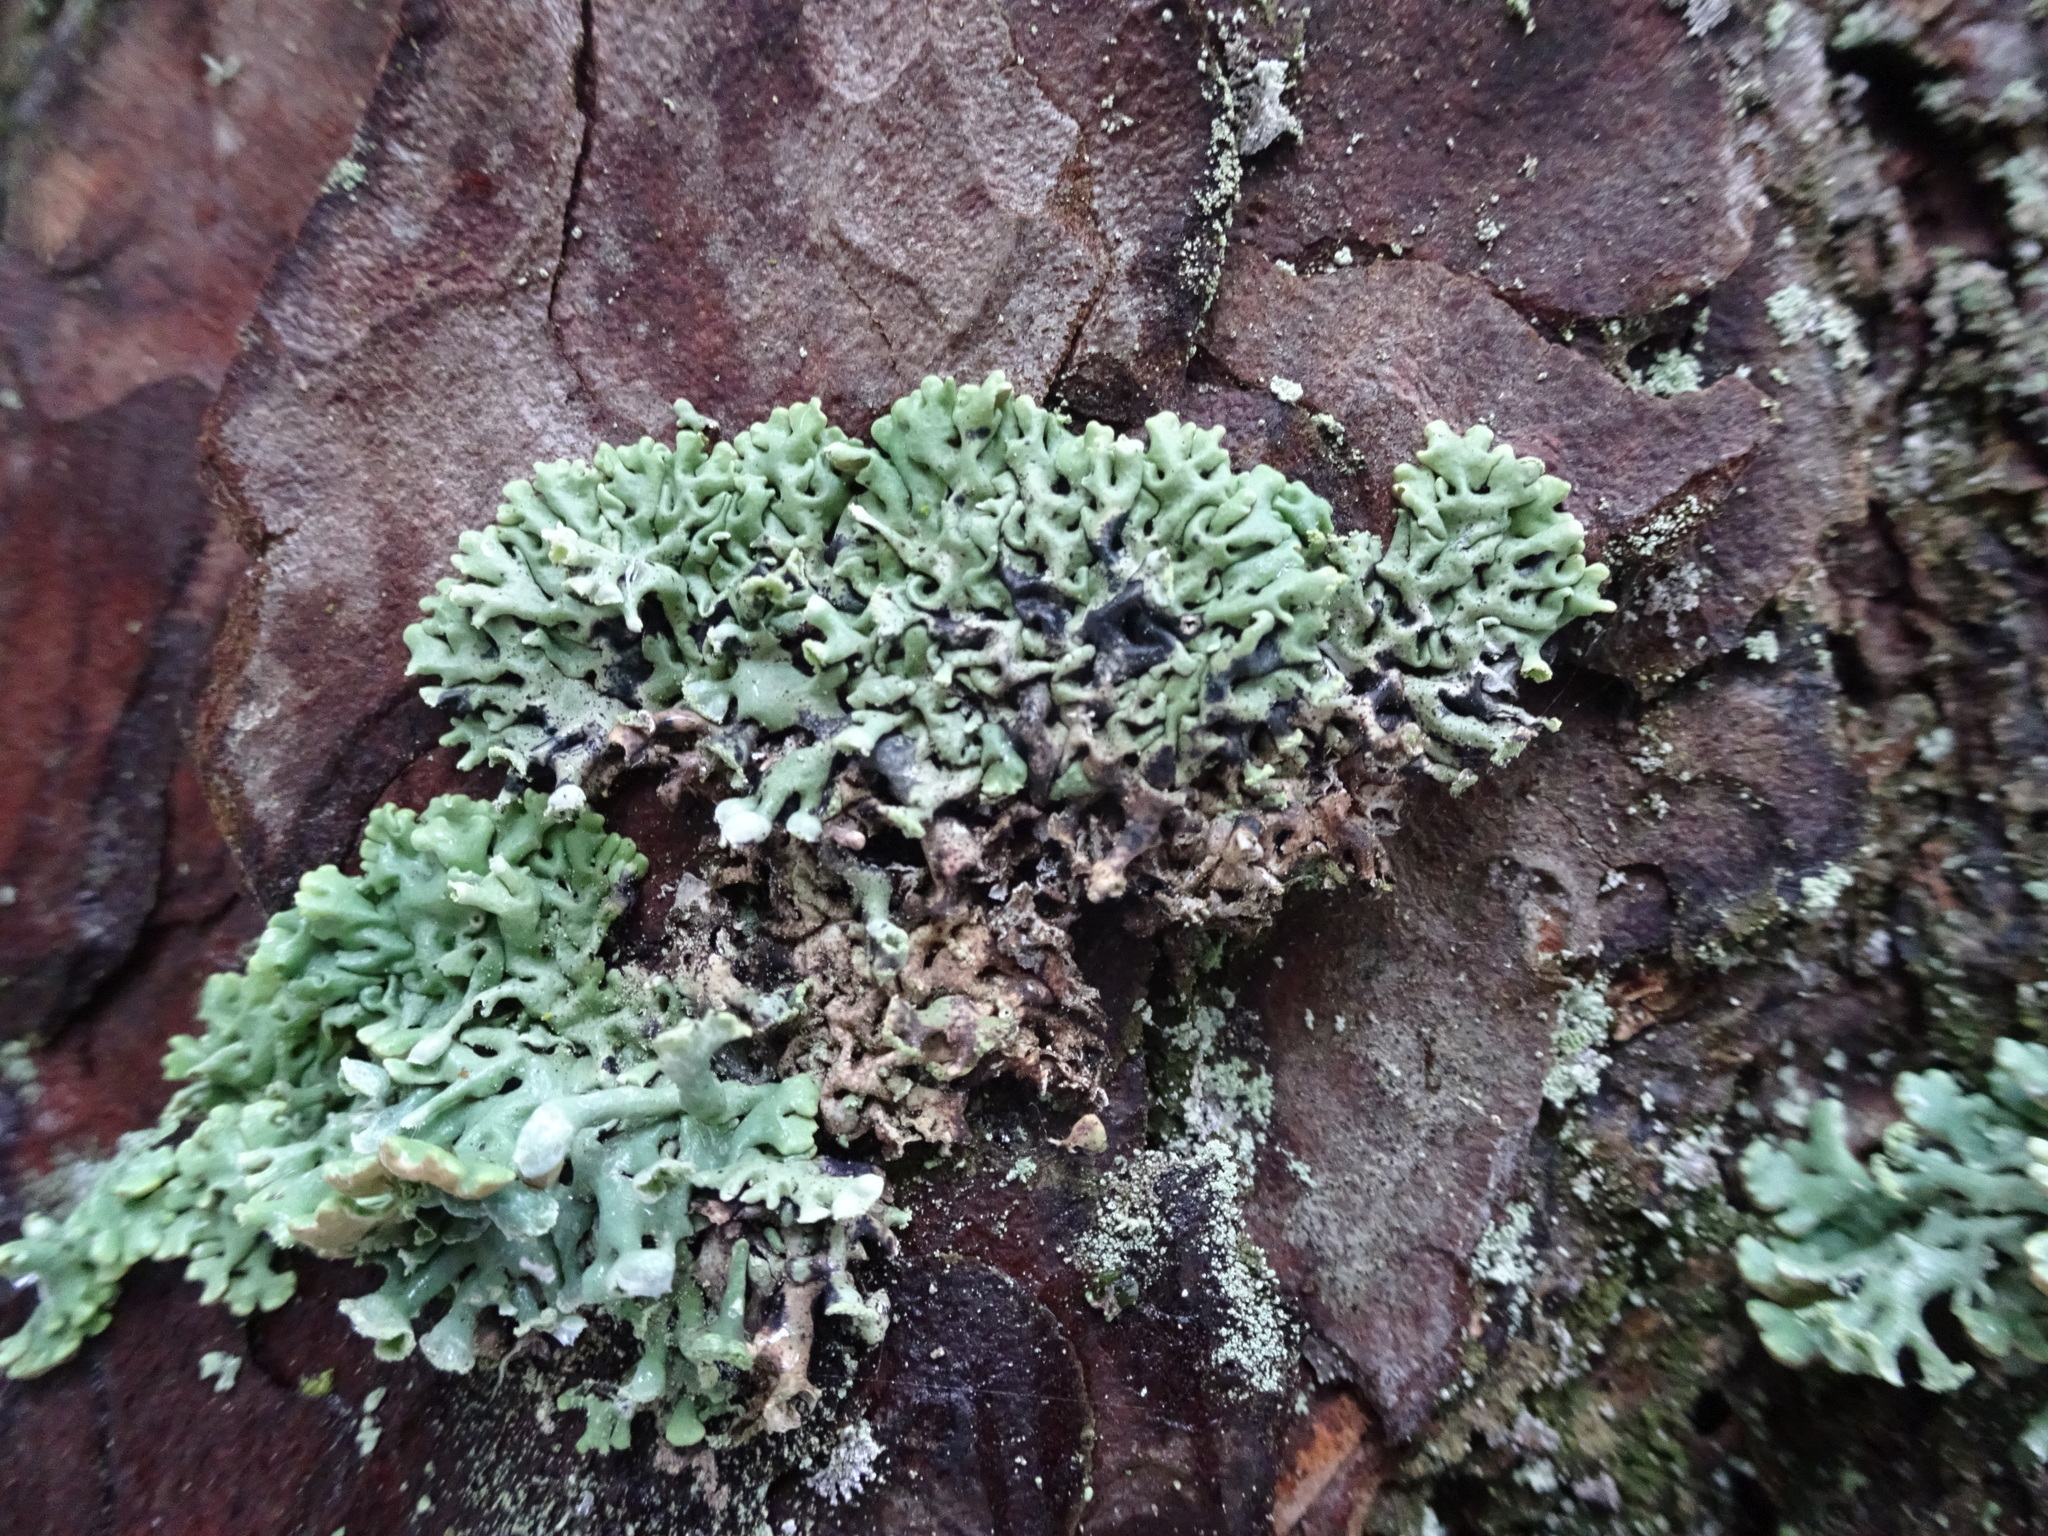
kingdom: Fungi
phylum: Ascomycota
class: Lecanoromycetes
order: Lecanorales
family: Parmeliaceae
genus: Hypogymnia
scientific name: Hypogymnia physodes
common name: Dark crottle
